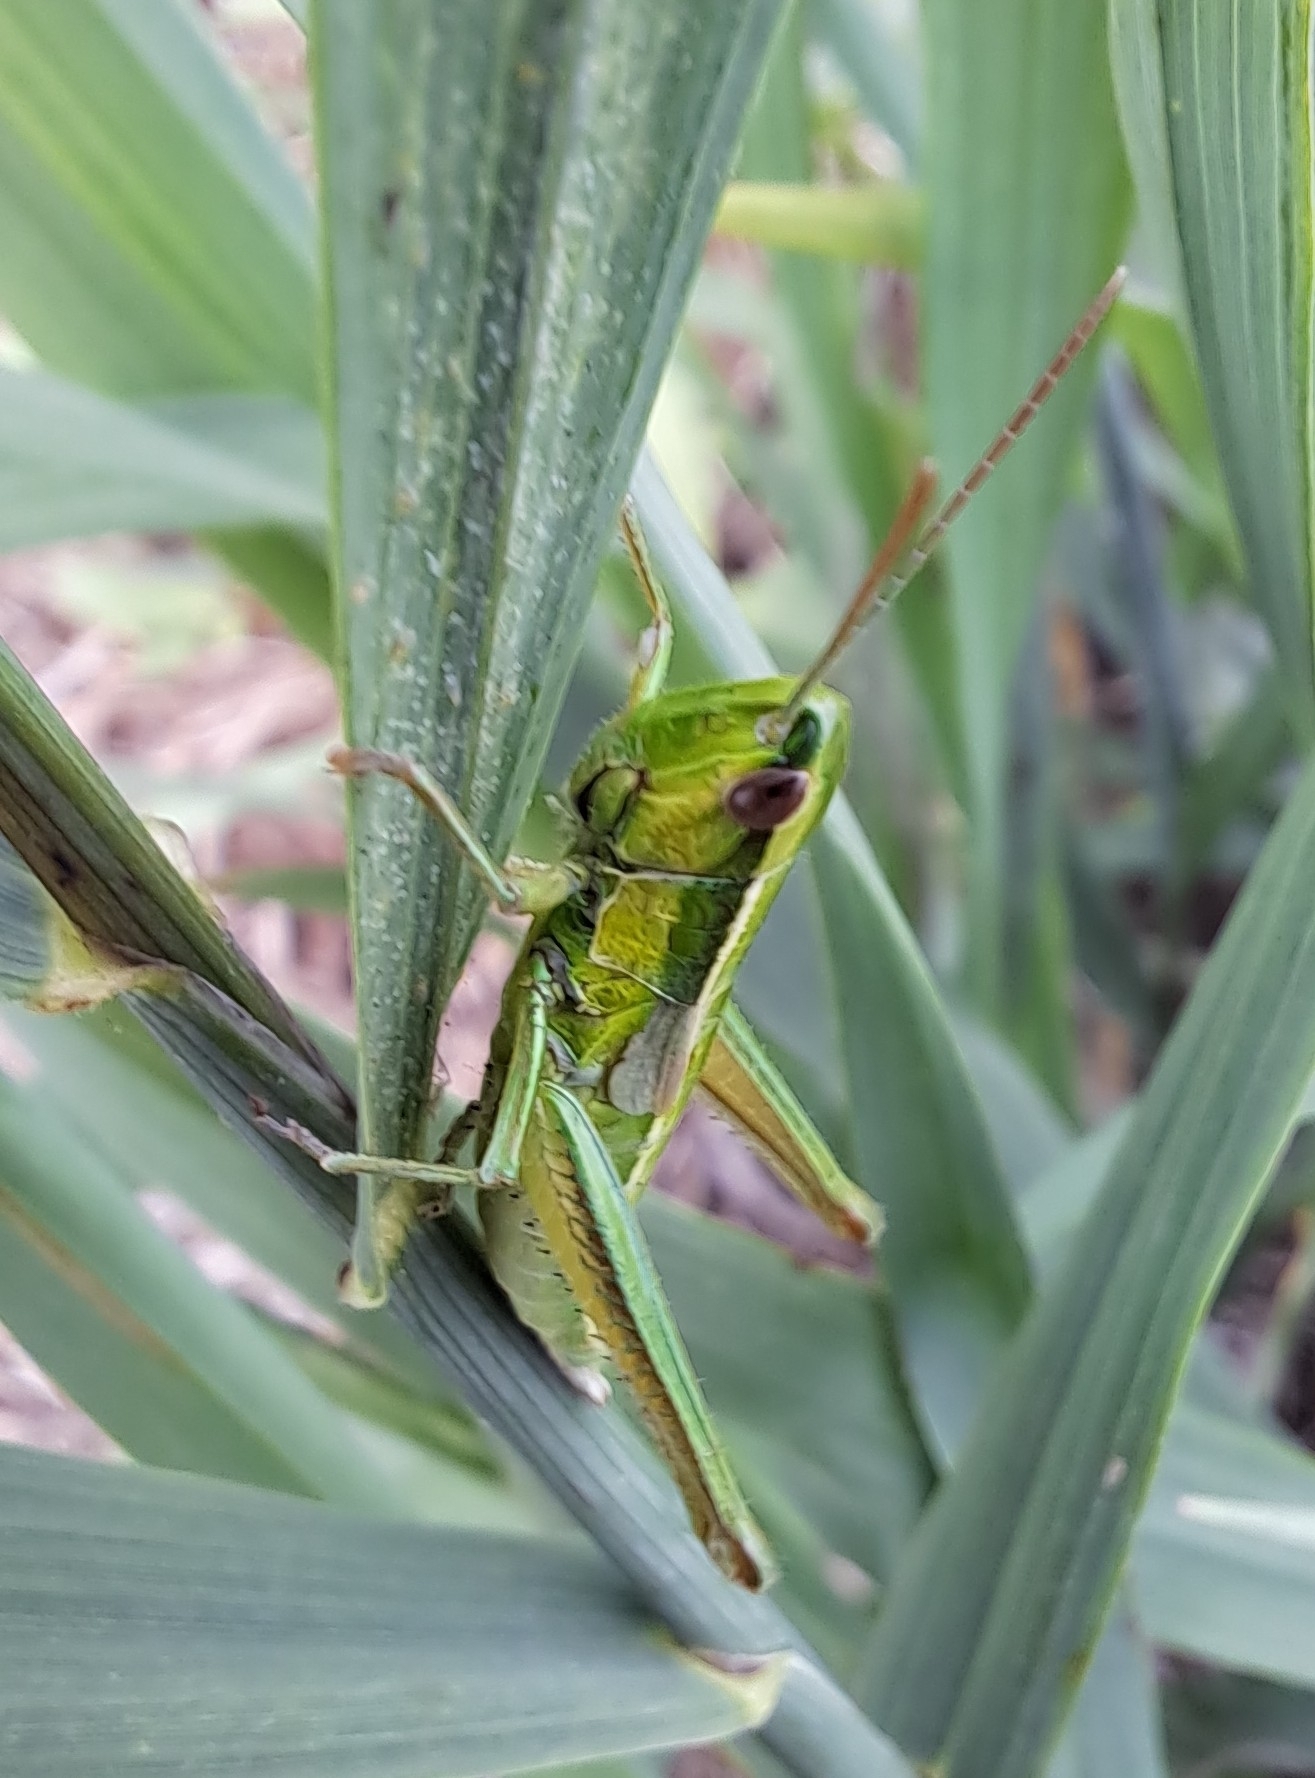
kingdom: Animalia
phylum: Arthropoda
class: Insecta
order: Orthoptera
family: Acrididae
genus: Euthystira
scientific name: Euthystira brachyptera
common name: Small gold grasshopper
